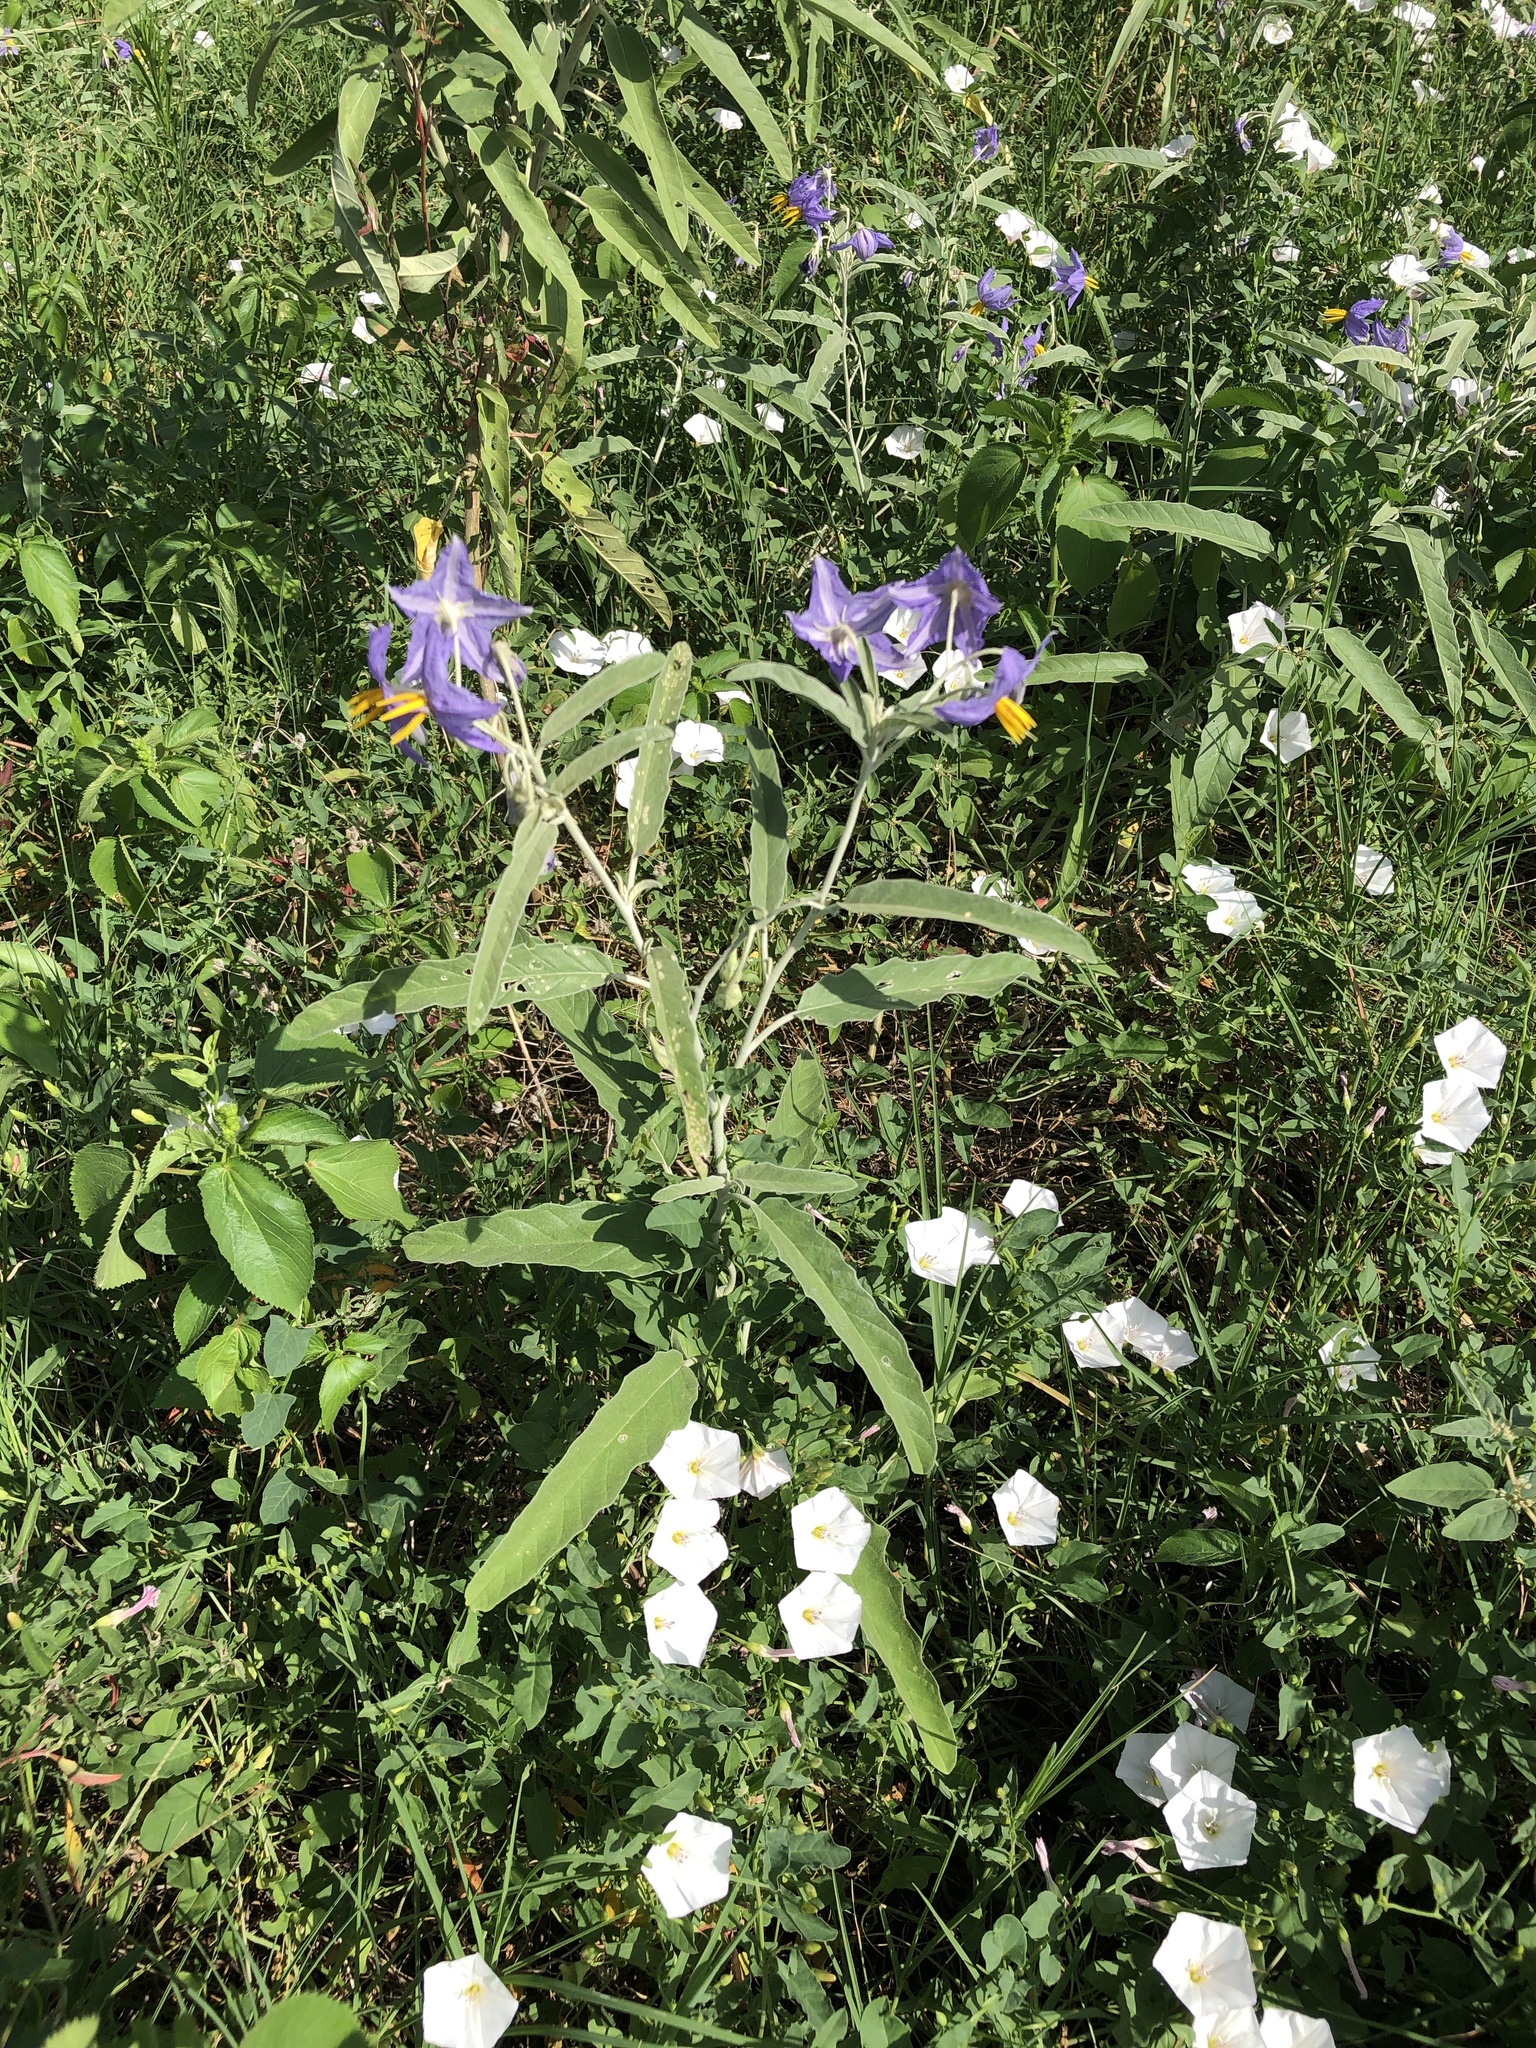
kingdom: Plantae
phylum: Tracheophyta
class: Magnoliopsida
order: Solanales
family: Solanaceae
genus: Solanum
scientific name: Solanum elaeagnifolium
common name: Silverleaf nightshade
